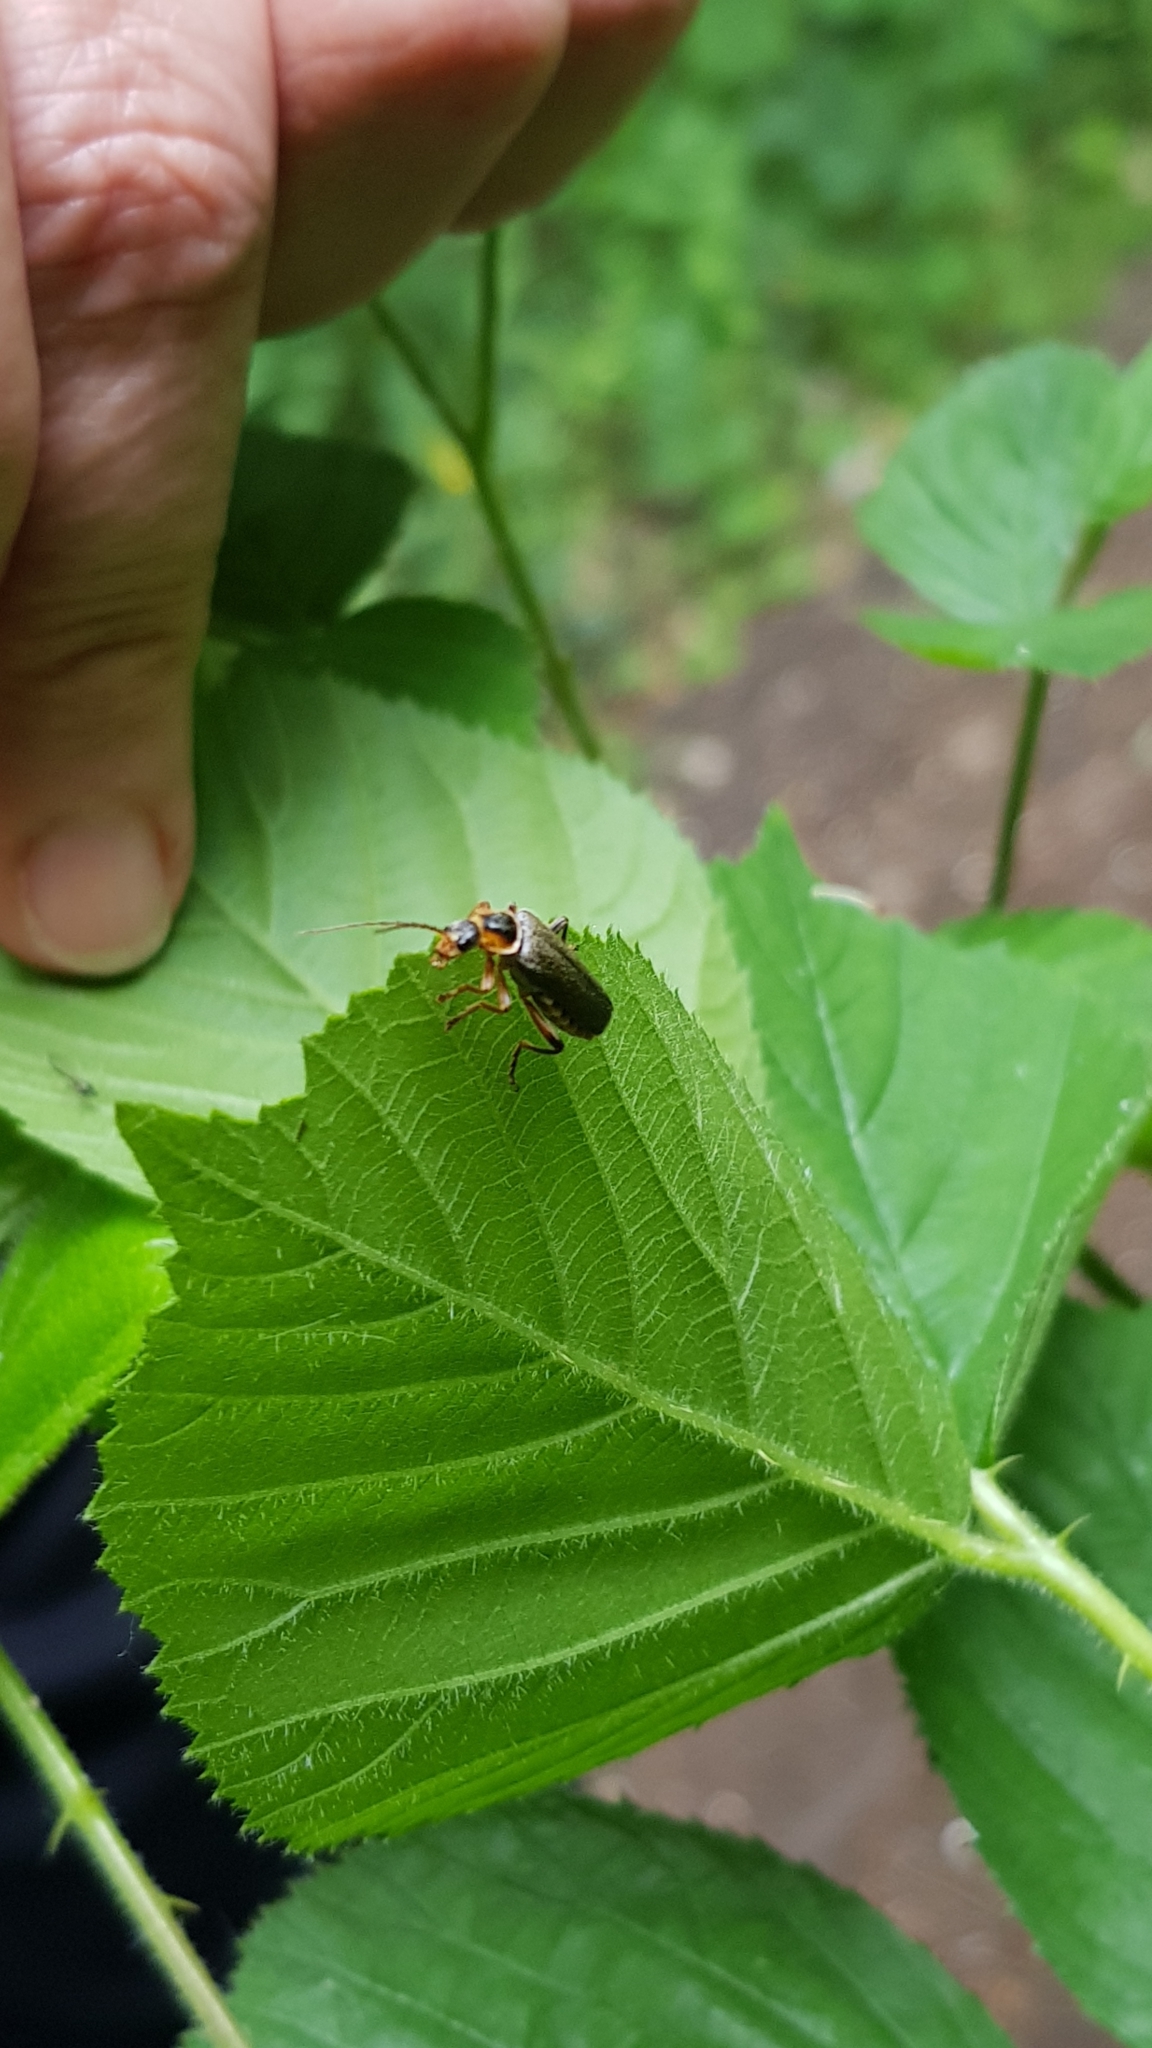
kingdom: Animalia
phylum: Arthropoda
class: Insecta
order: Coleoptera
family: Cantharidae
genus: Cantharis
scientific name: Cantharis nigricans
